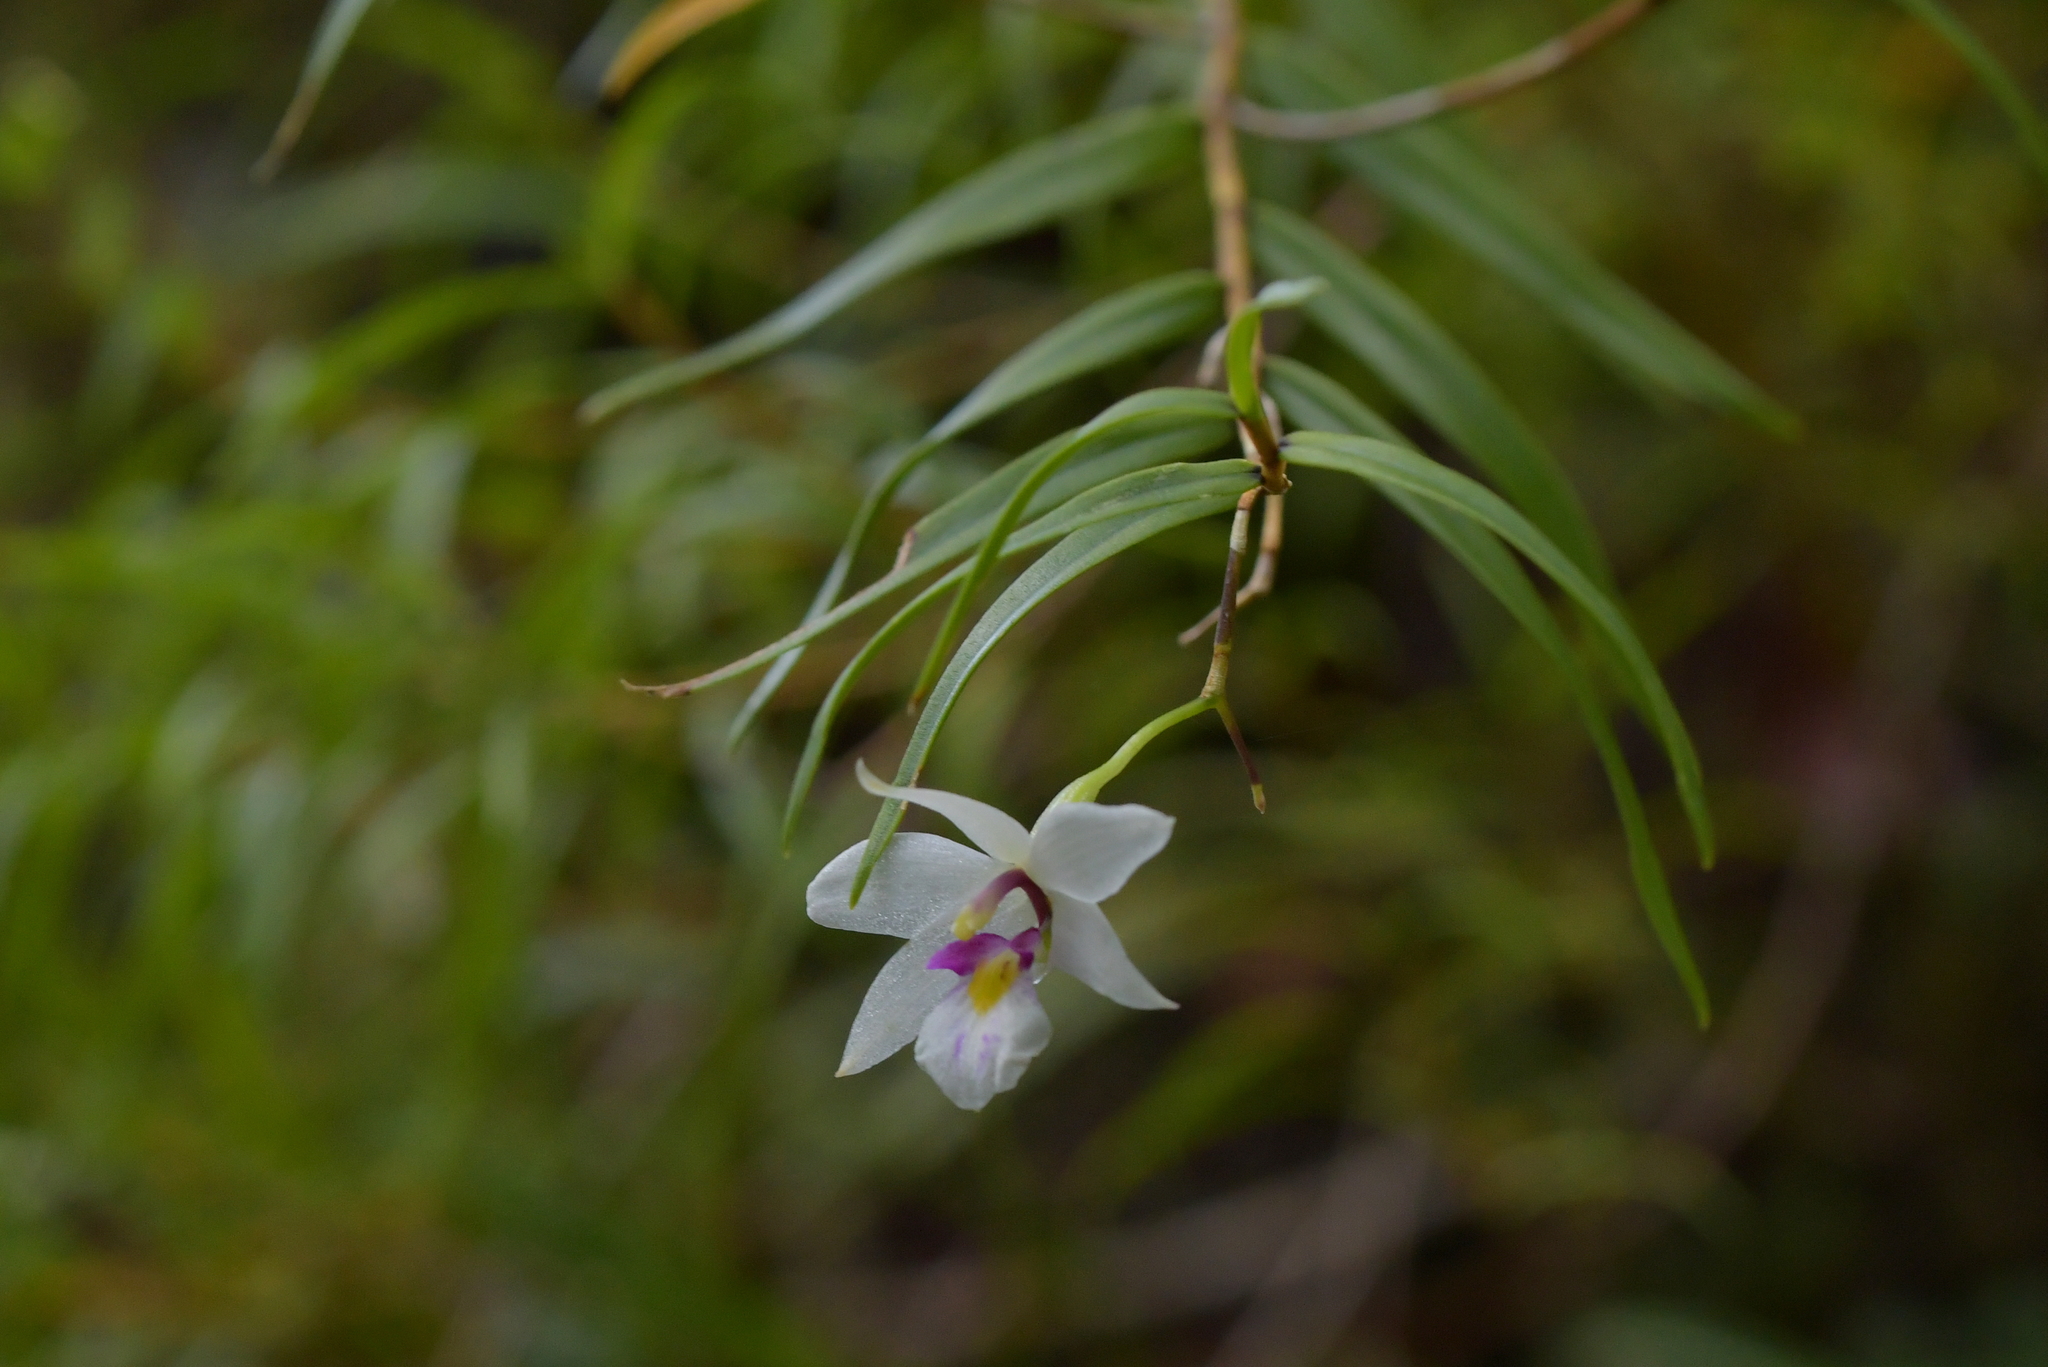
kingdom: Plantae
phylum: Tracheophyta
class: Liliopsida
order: Asparagales
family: Orchidaceae
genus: Dendrobium
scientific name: Dendrobium cunninghamii
